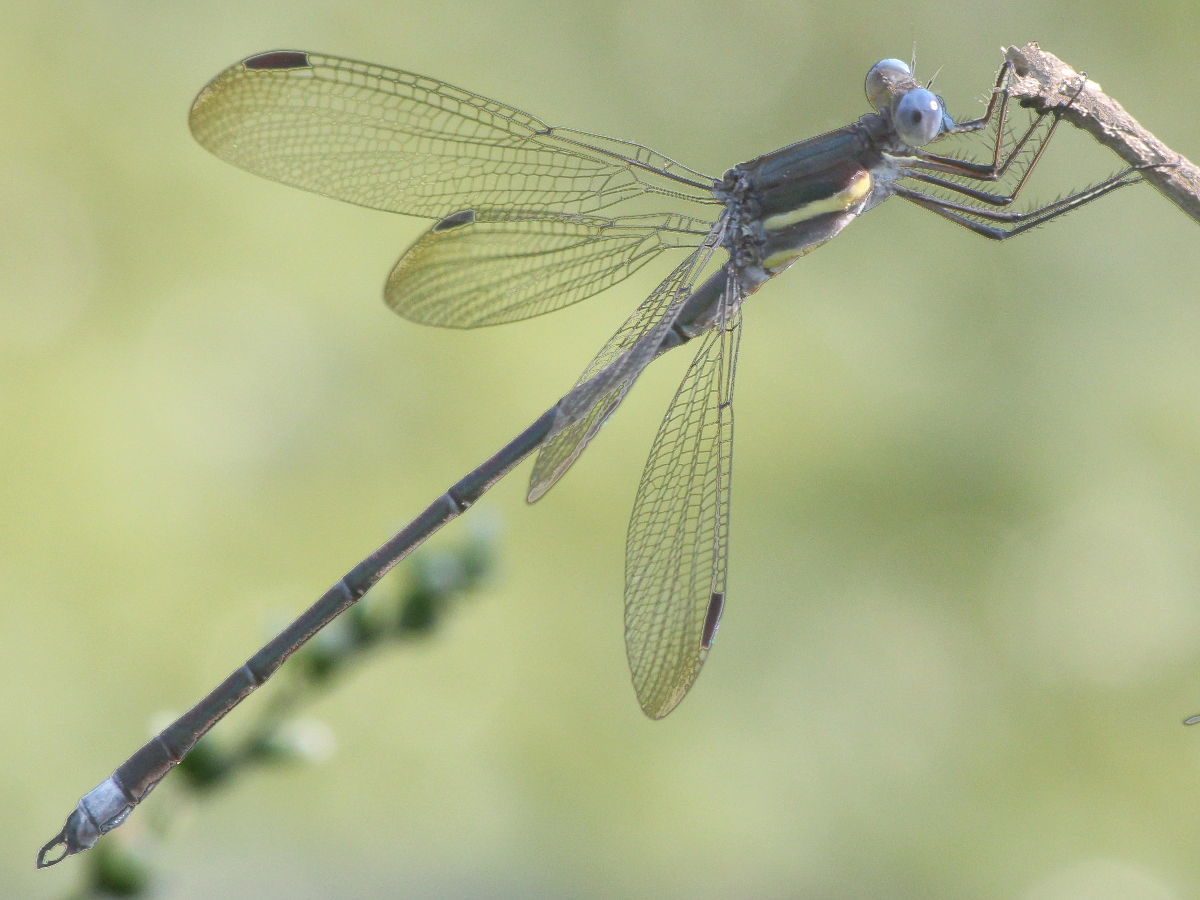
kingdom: Animalia
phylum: Arthropoda
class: Insecta
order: Odonata
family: Lestidae
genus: Archilestes
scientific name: Archilestes grandis
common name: Great spreadwing
